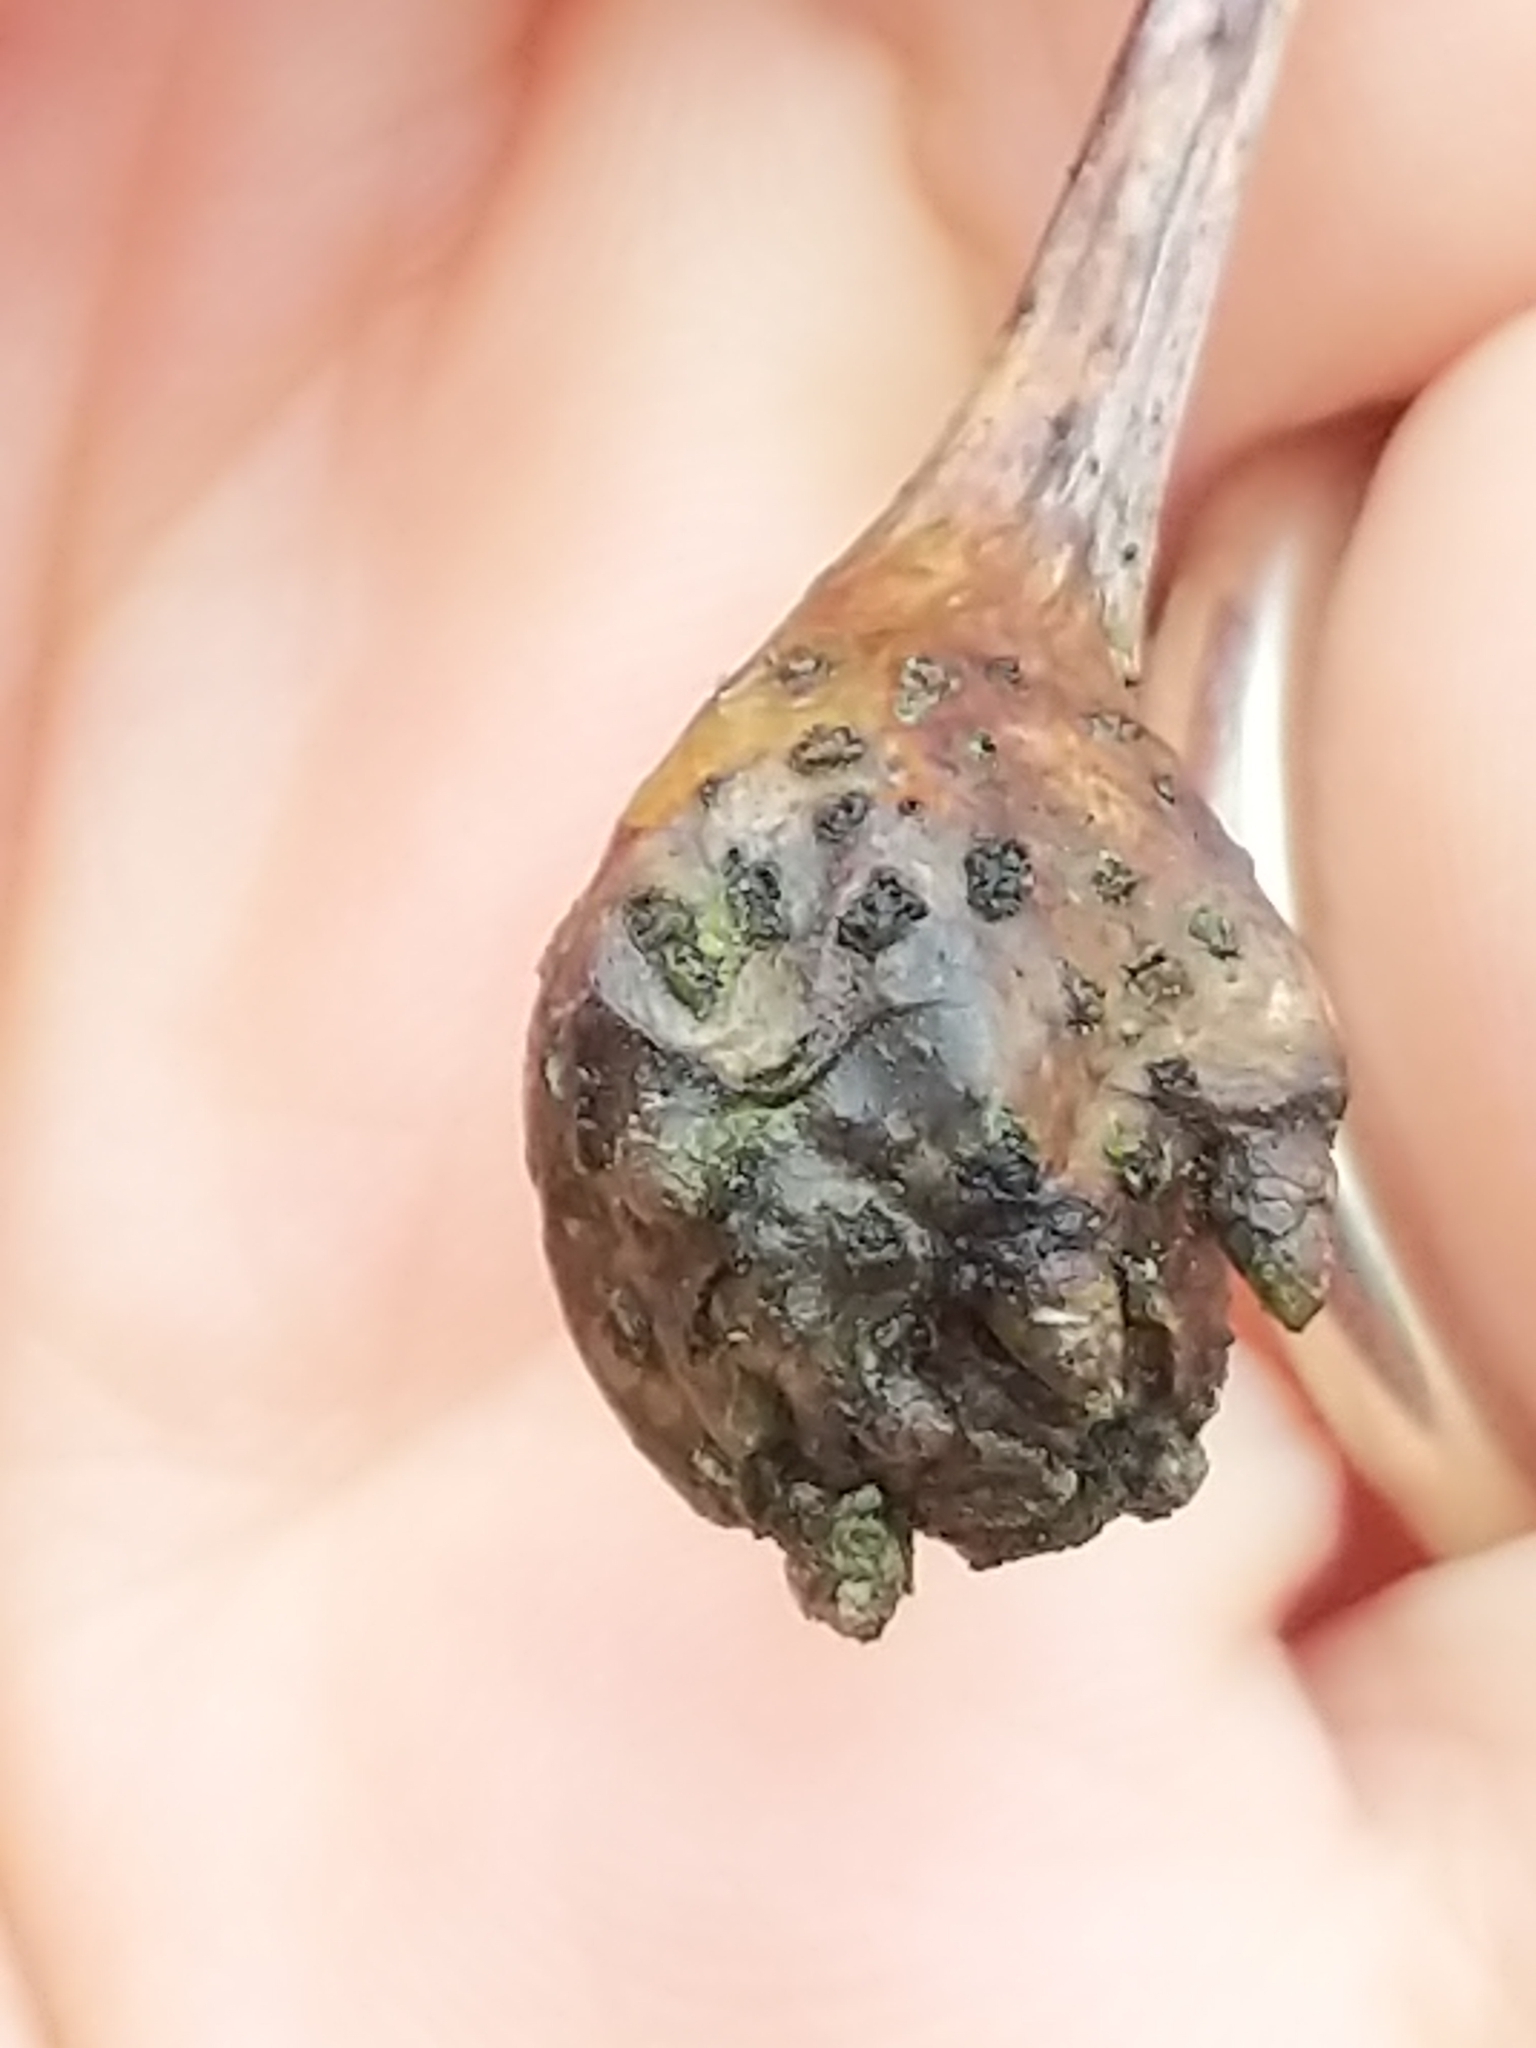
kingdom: Animalia
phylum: Arthropoda
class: Insecta
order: Hymenoptera
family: Cynipidae
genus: Callirhytis
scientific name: Callirhytis clavula
